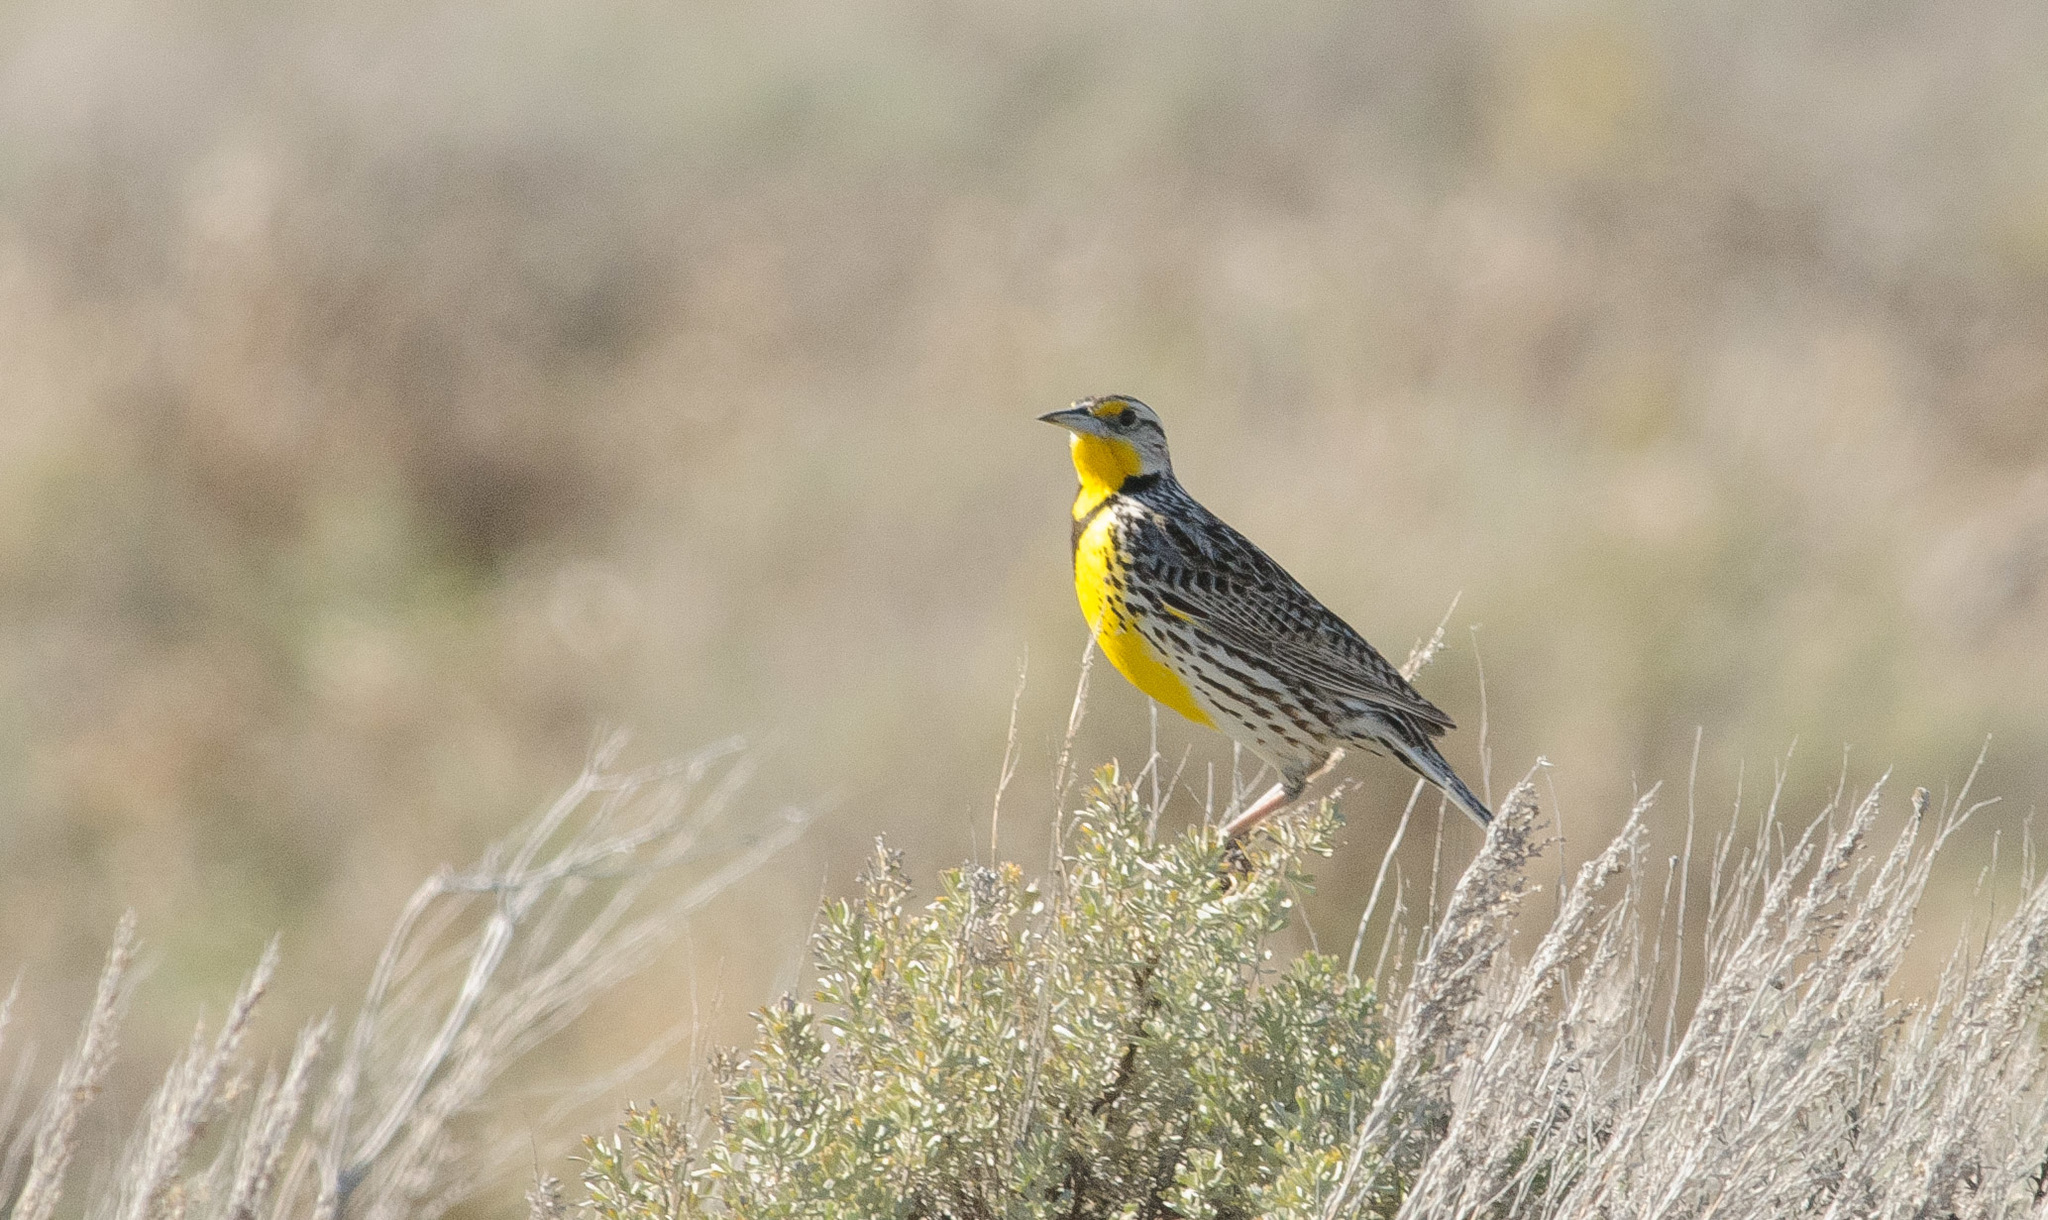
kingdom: Animalia
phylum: Chordata
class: Aves
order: Passeriformes
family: Icteridae
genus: Sturnella
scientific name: Sturnella neglecta
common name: Western meadowlark
